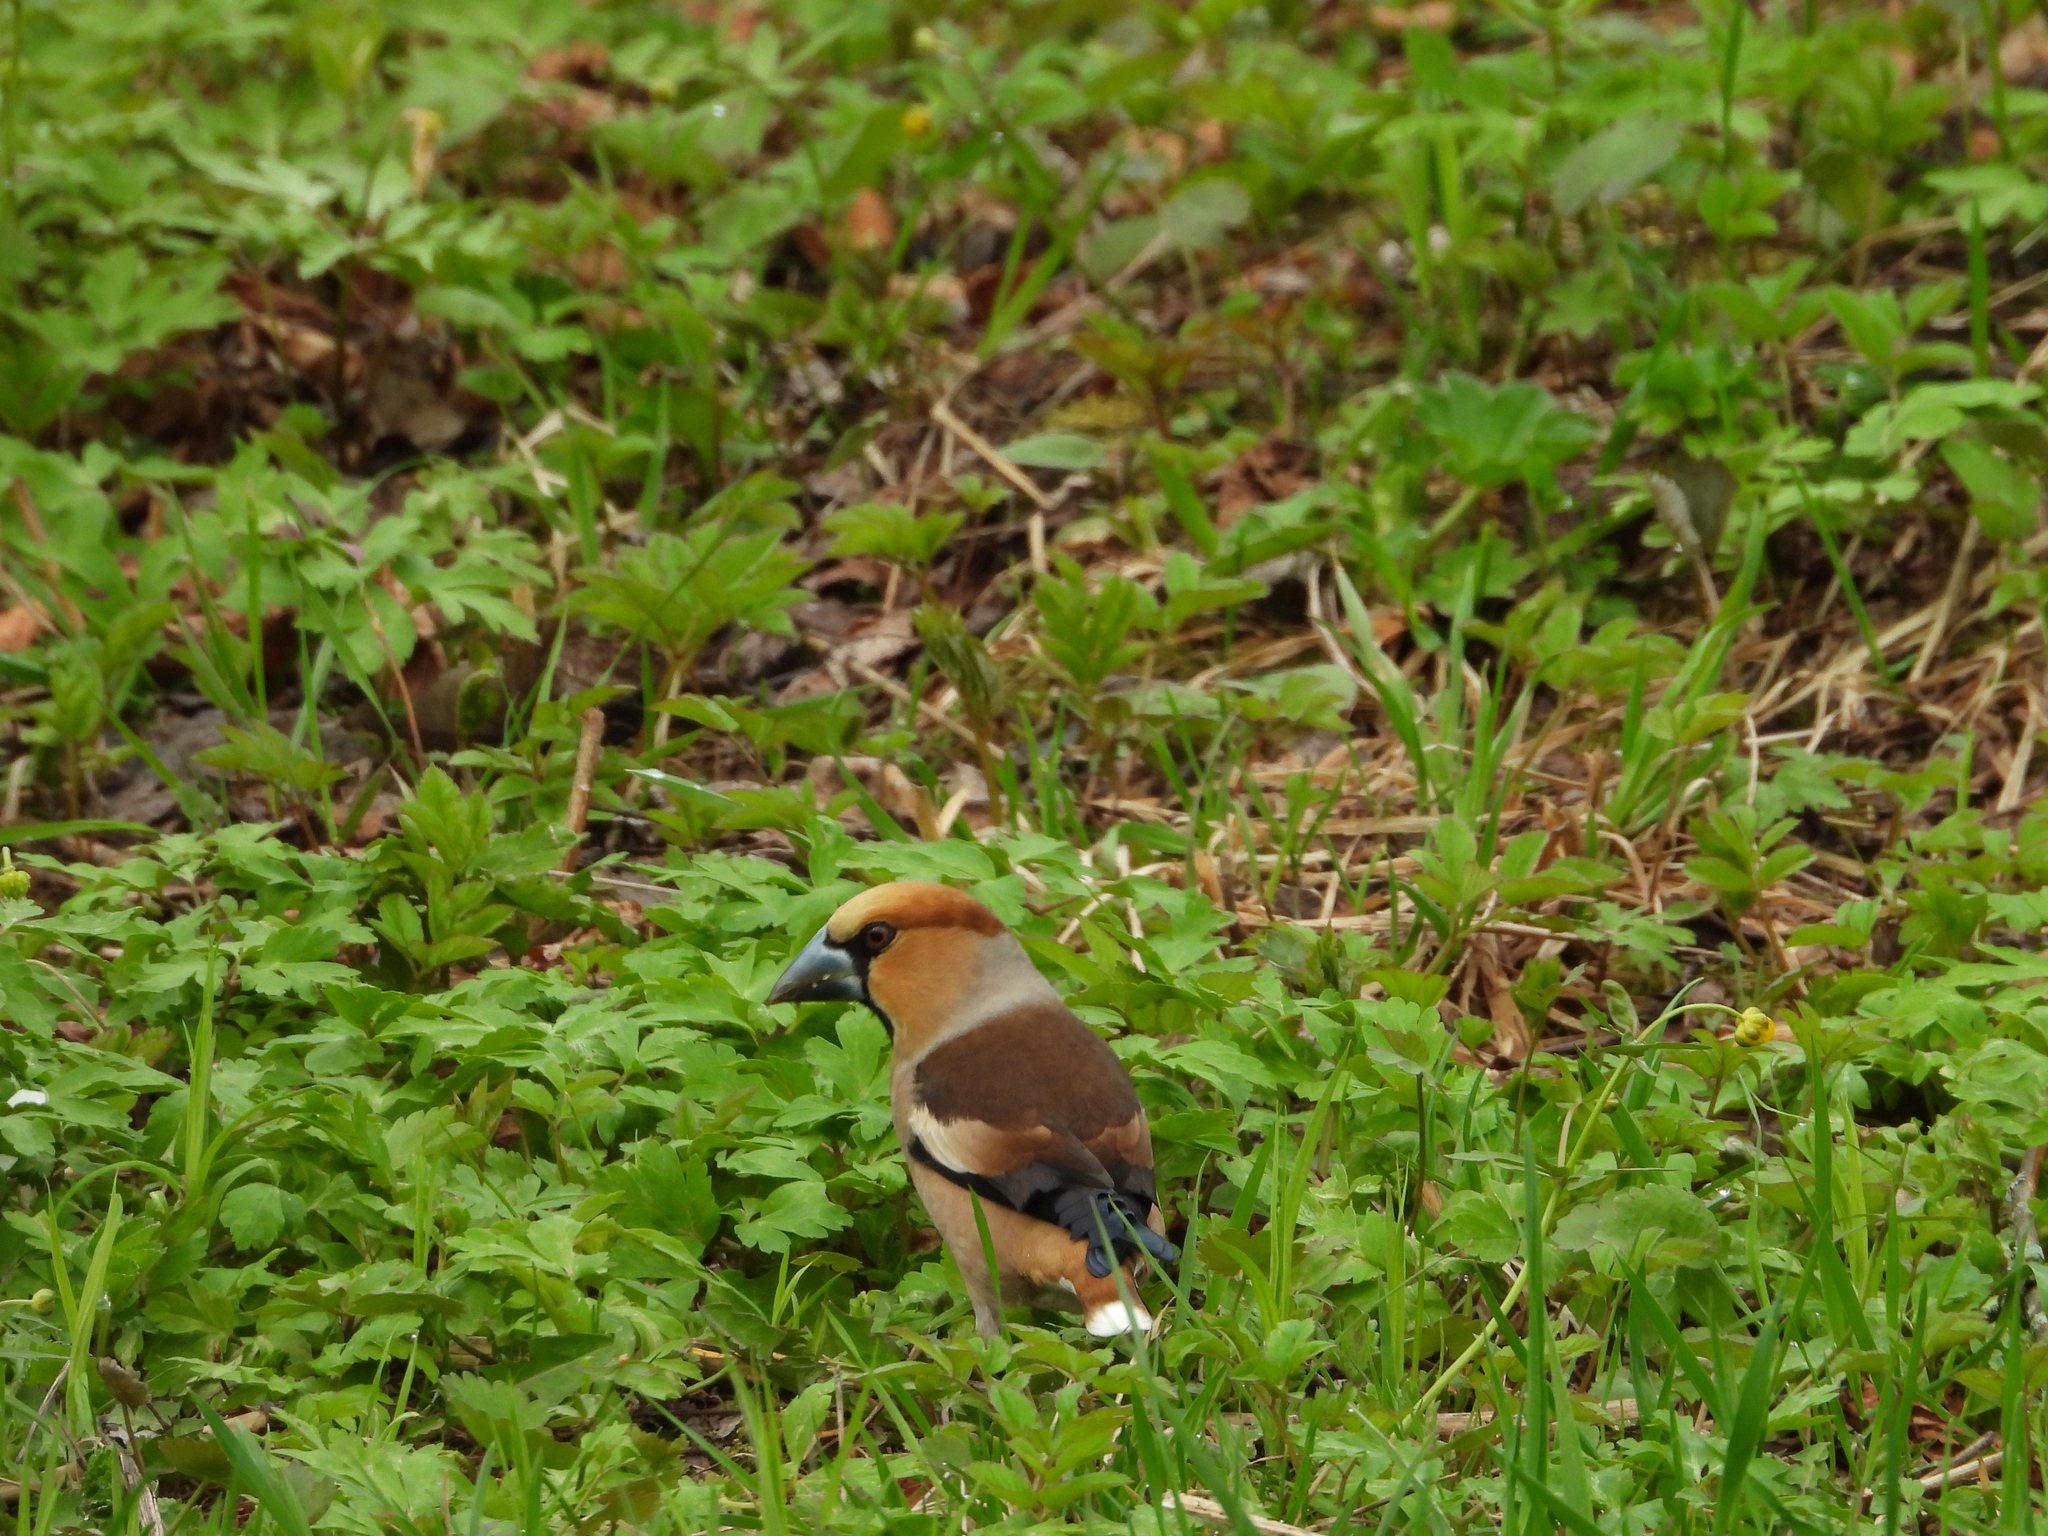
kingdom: Animalia
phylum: Chordata
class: Aves
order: Passeriformes
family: Fringillidae
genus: Coccothraustes
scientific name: Coccothraustes coccothraustes
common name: Hawfinch
